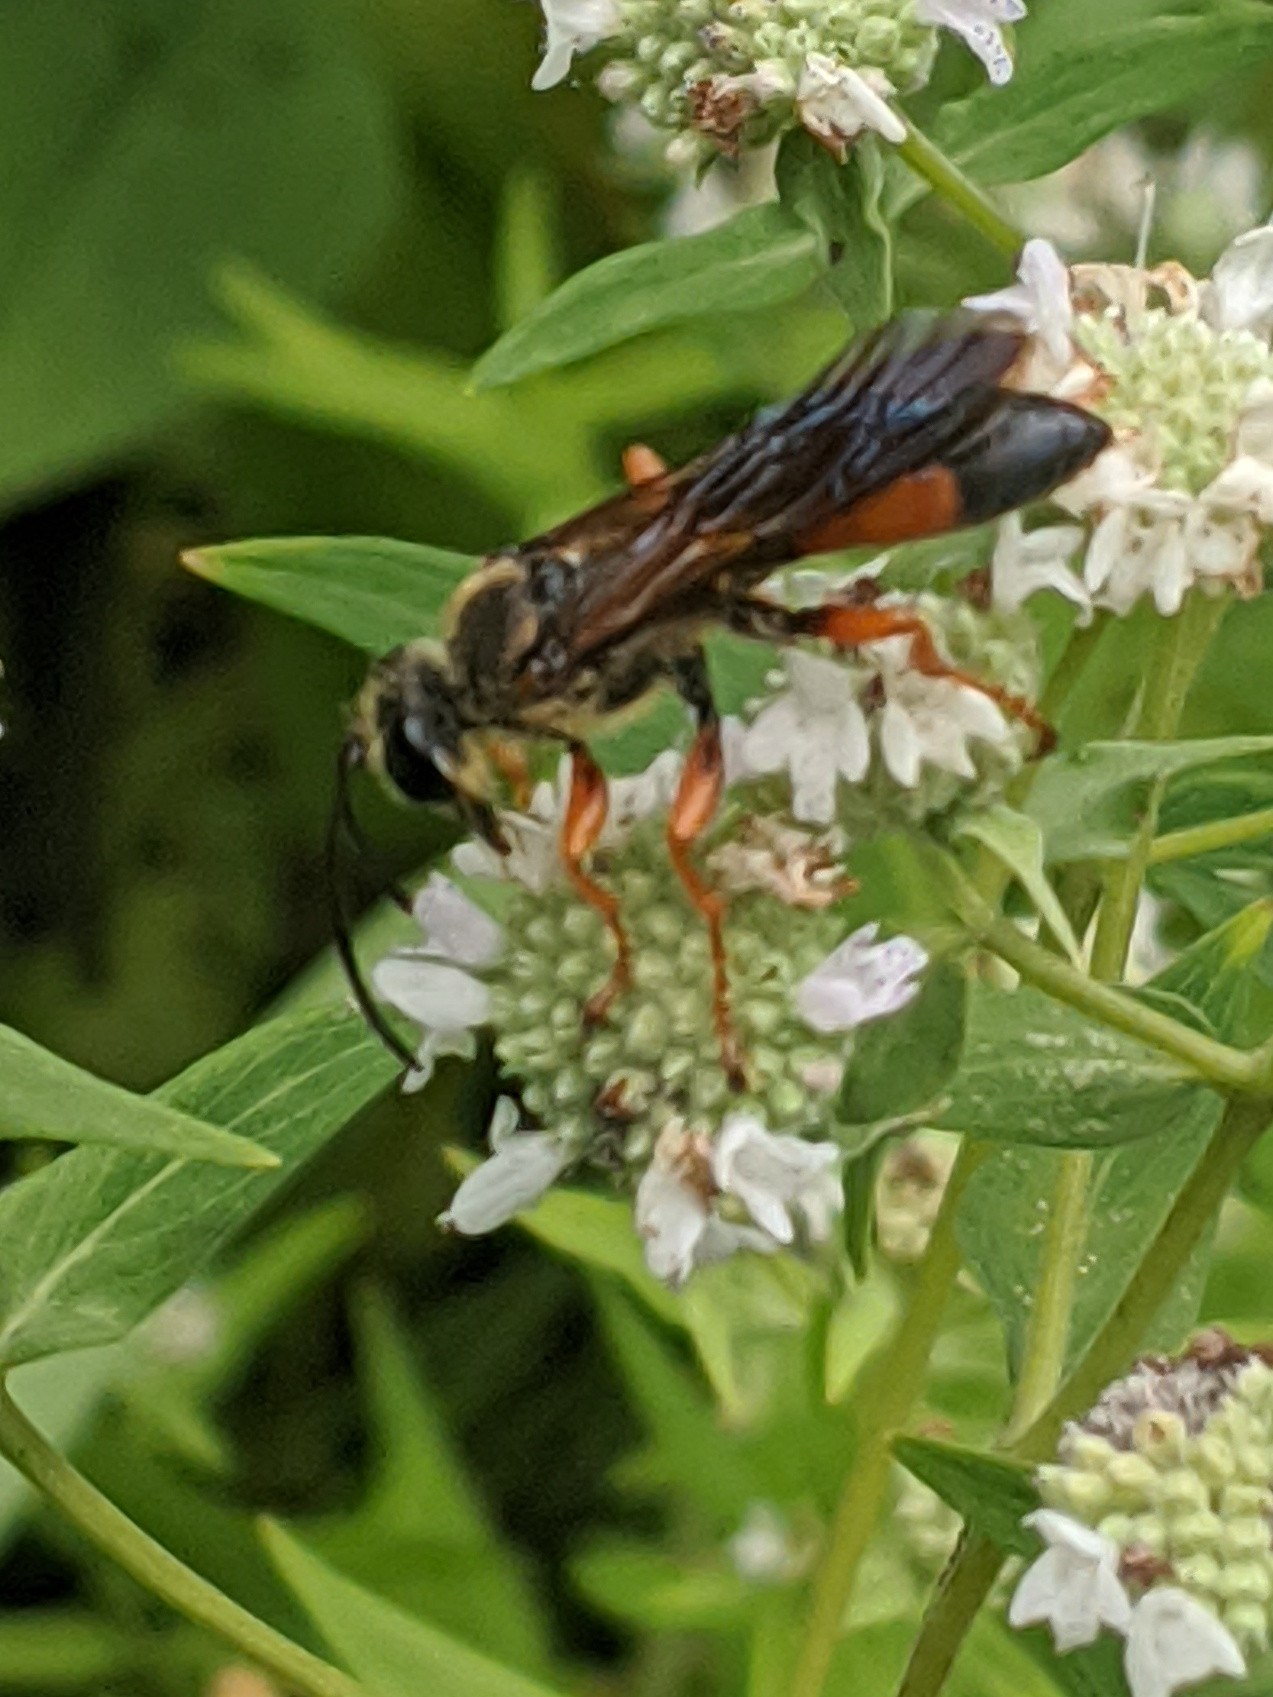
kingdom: Animalia
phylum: Arthropoda
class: Insecta
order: Hymenoptera
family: Sphecidae
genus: Sphex
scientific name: Sphex ichneumoneus
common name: Great golden digger wasp
